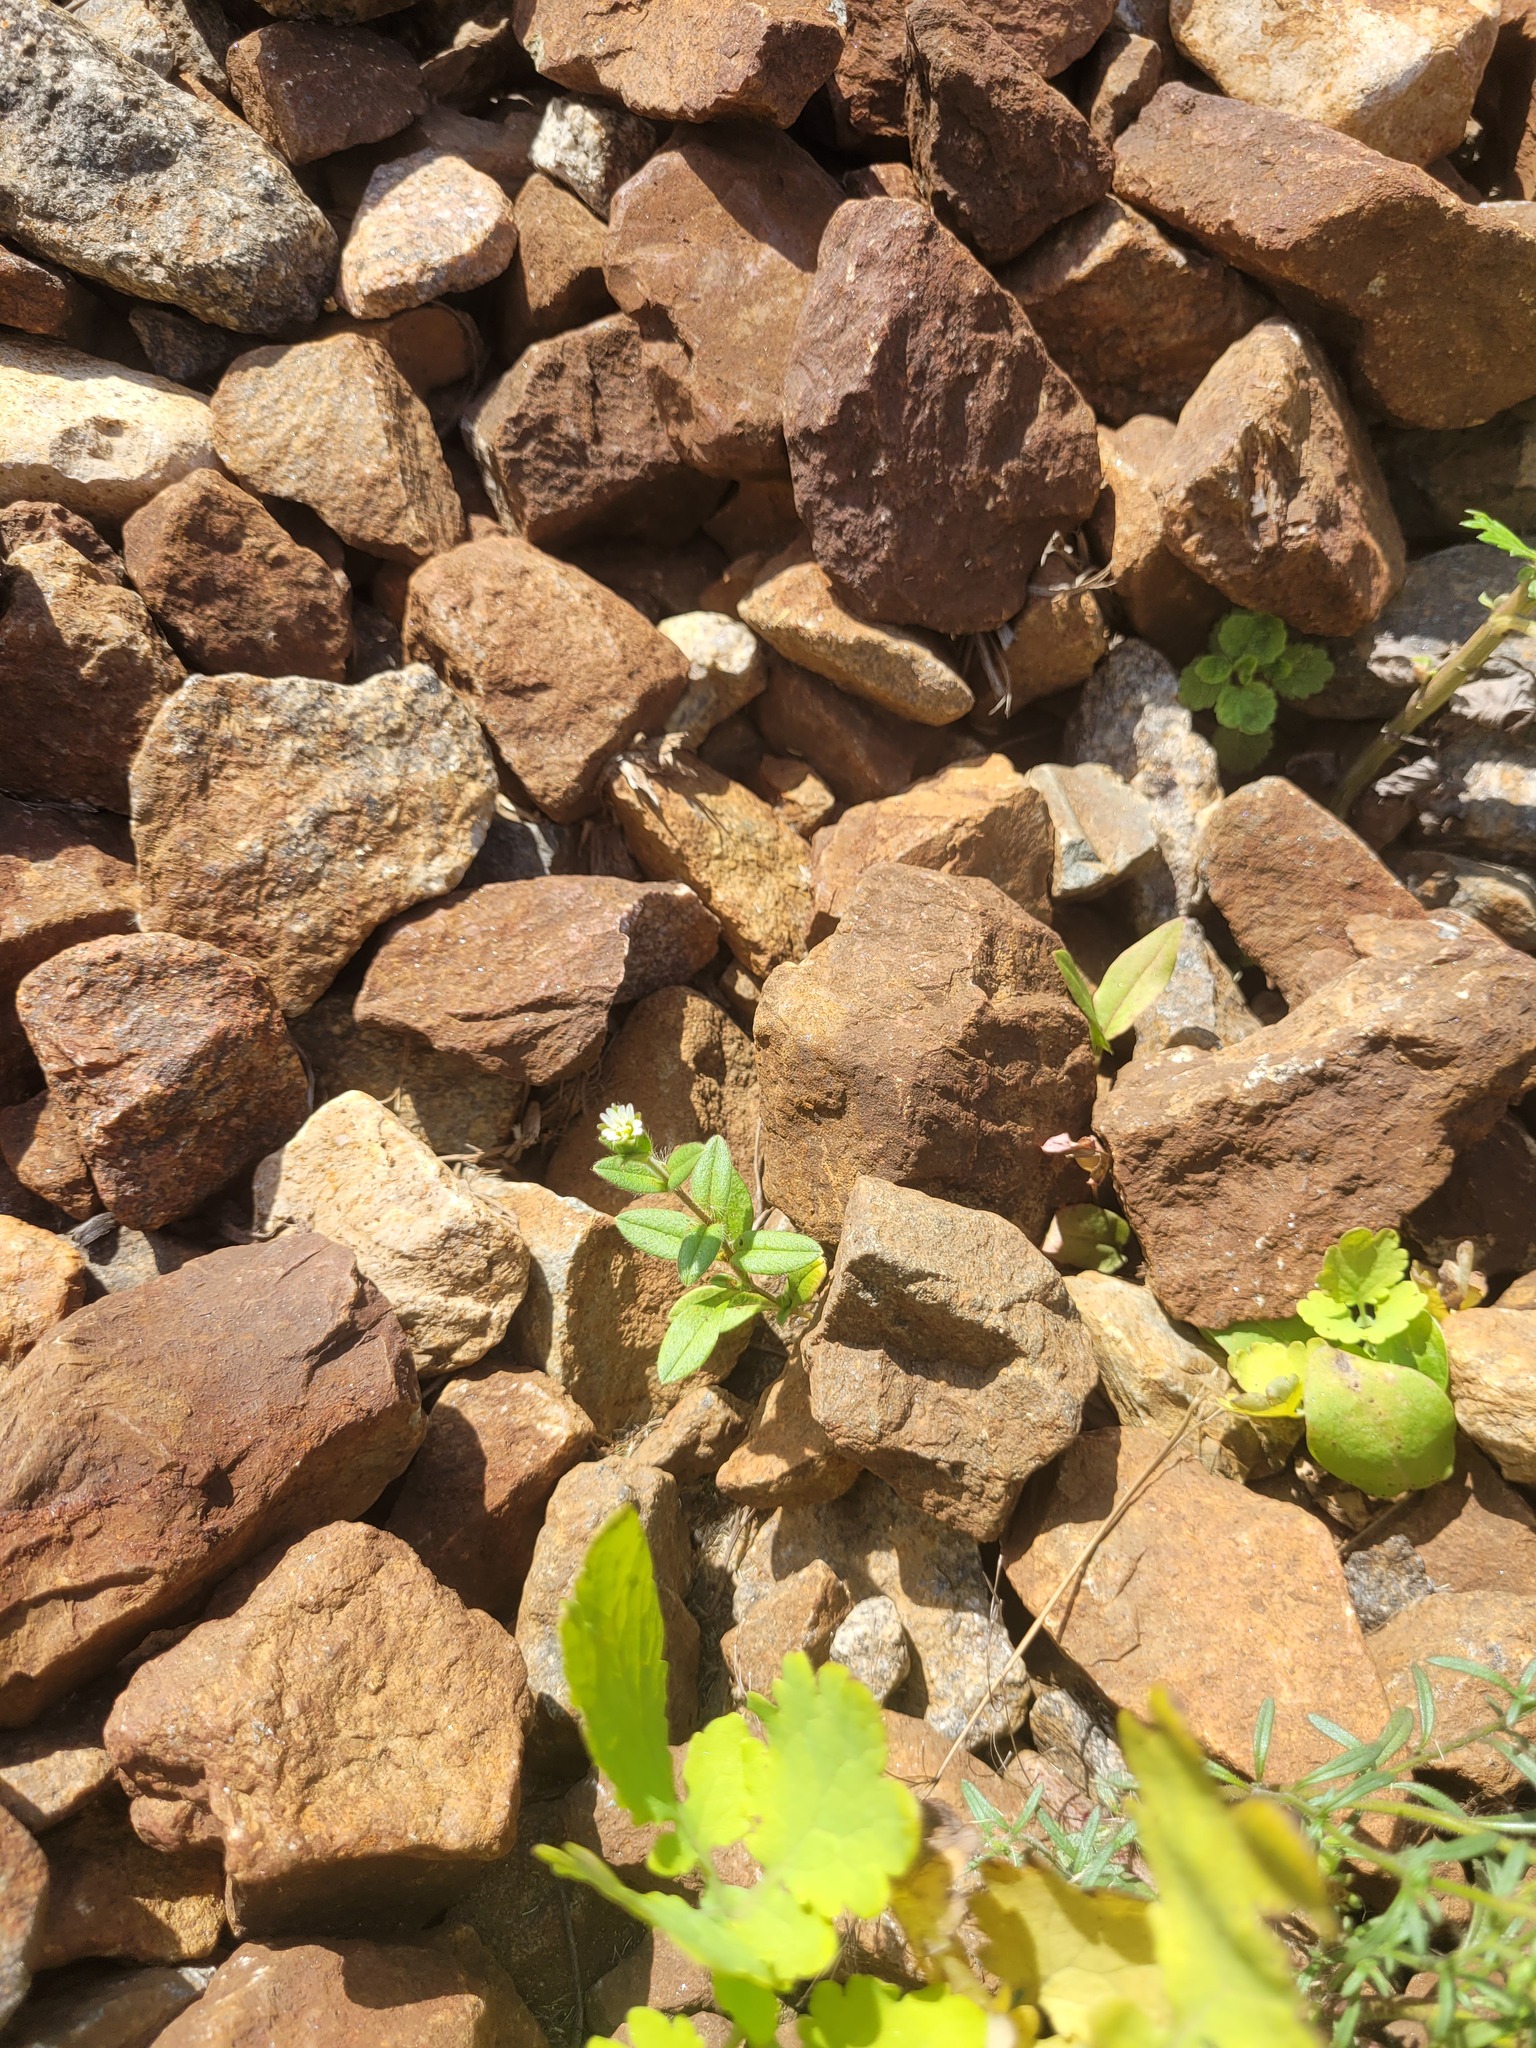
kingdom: Plantae
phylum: Tracheophyta
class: Magnoliopsida
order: Caryophyllales
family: Caryophyllaceae
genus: Cerastium
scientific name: Cerastium holosteoides
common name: Big chickweed
